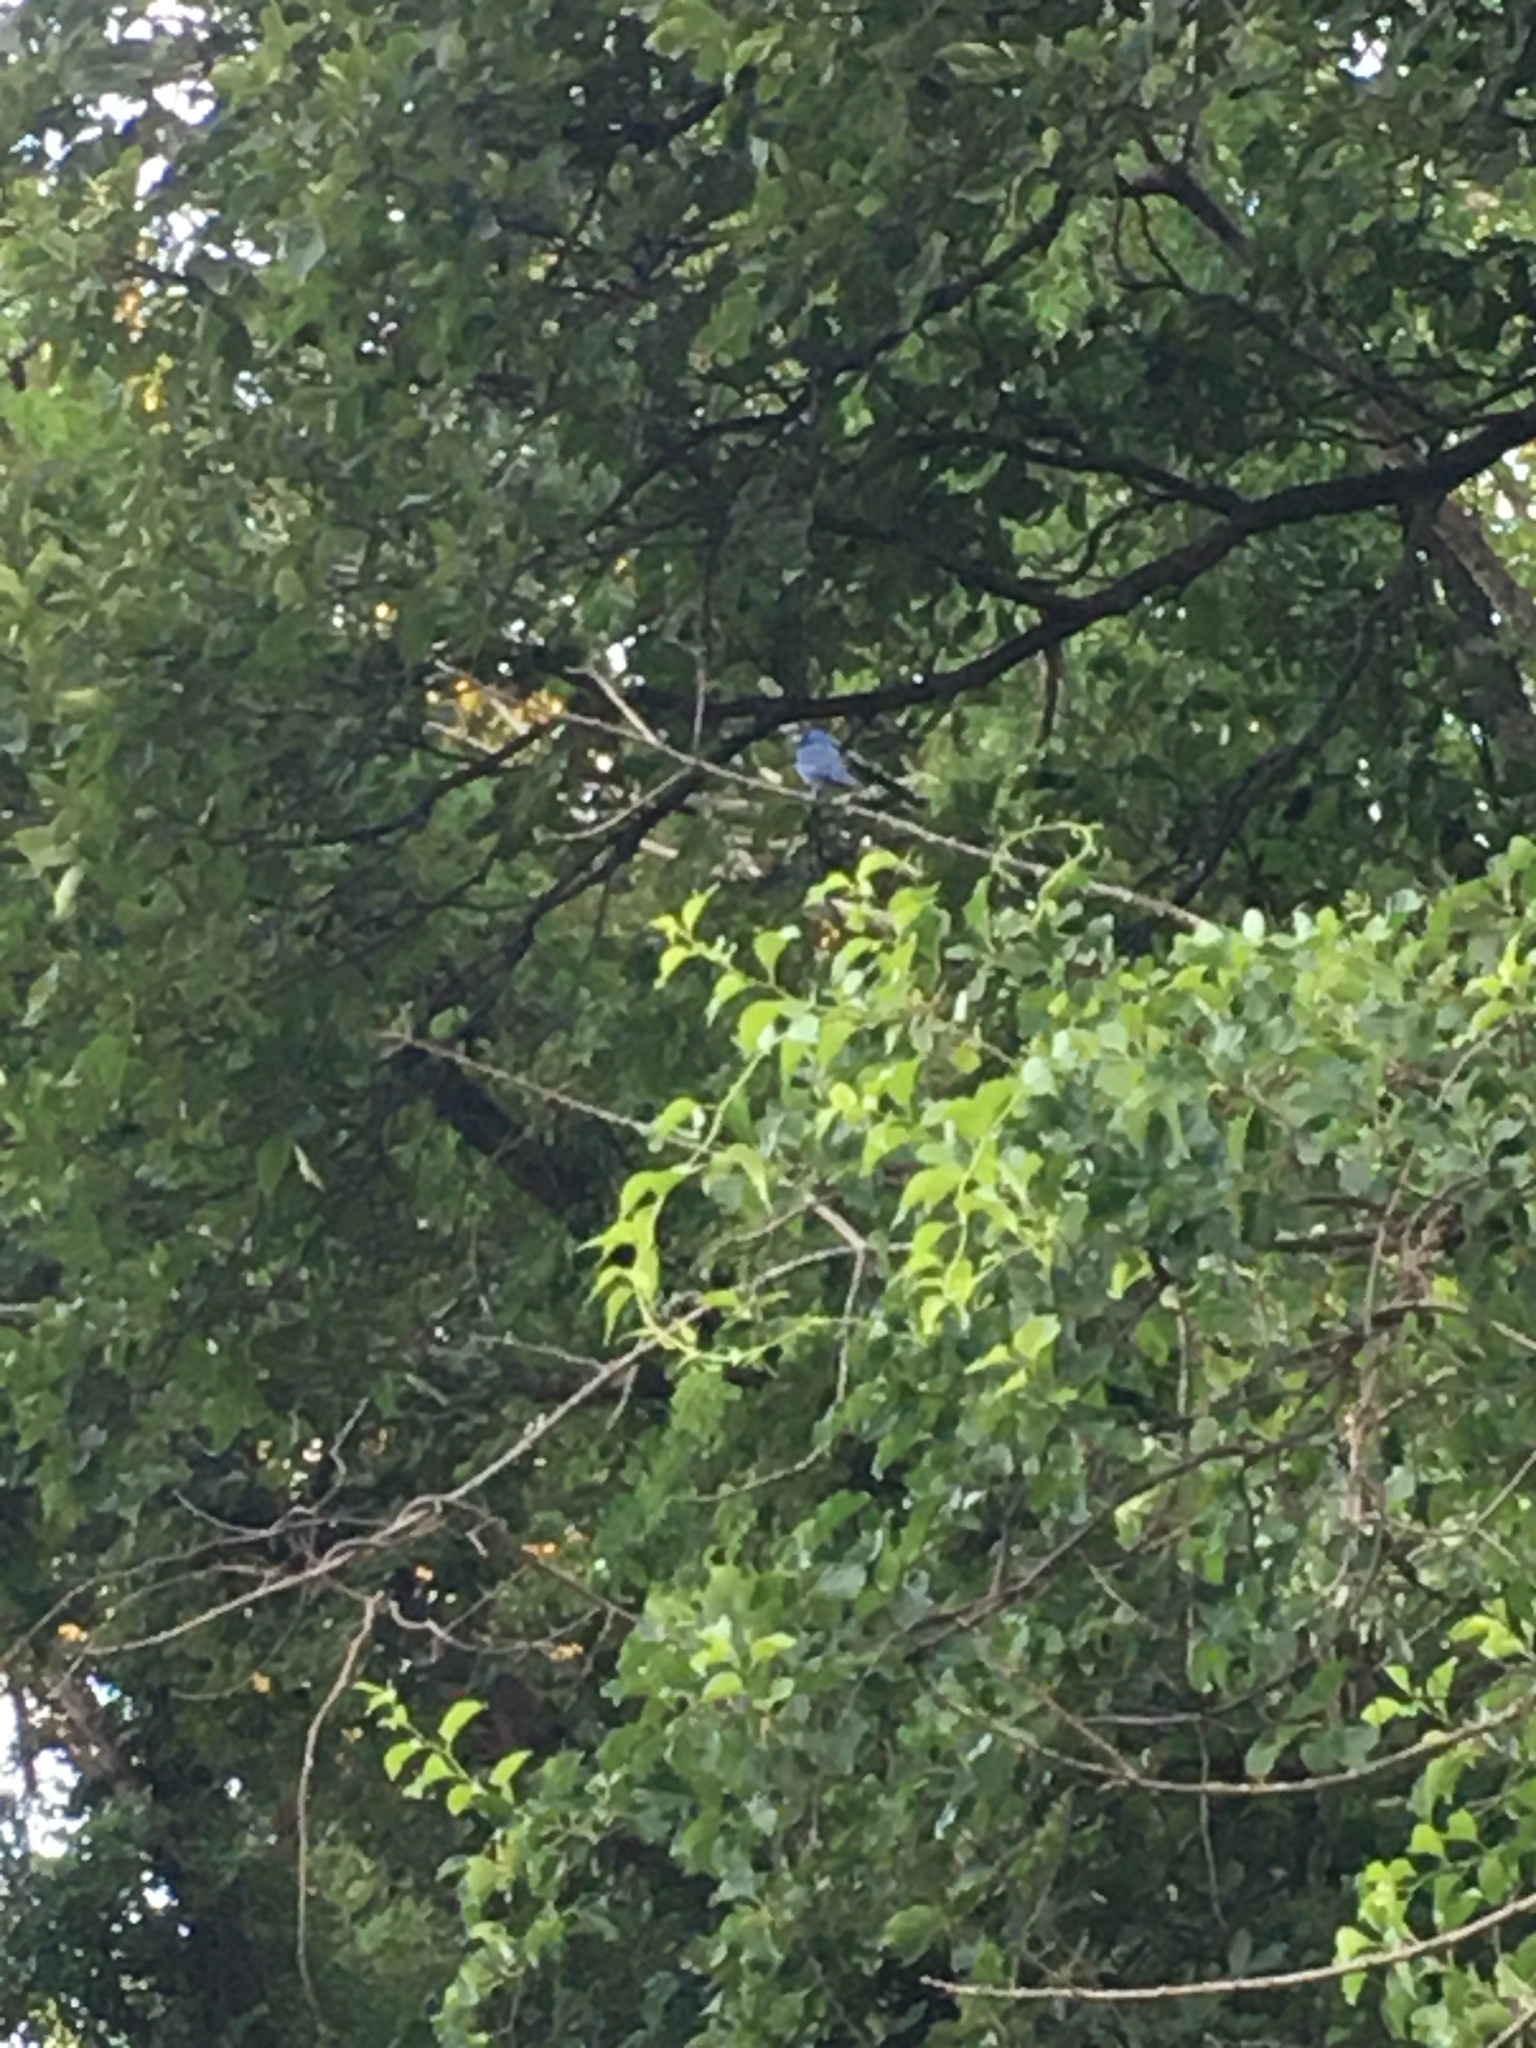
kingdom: Animalia
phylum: Chordata
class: Aves
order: Passeriformes
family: Cardinalidae
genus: Passerina
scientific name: Passerina cyanea
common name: Indigo bunting
